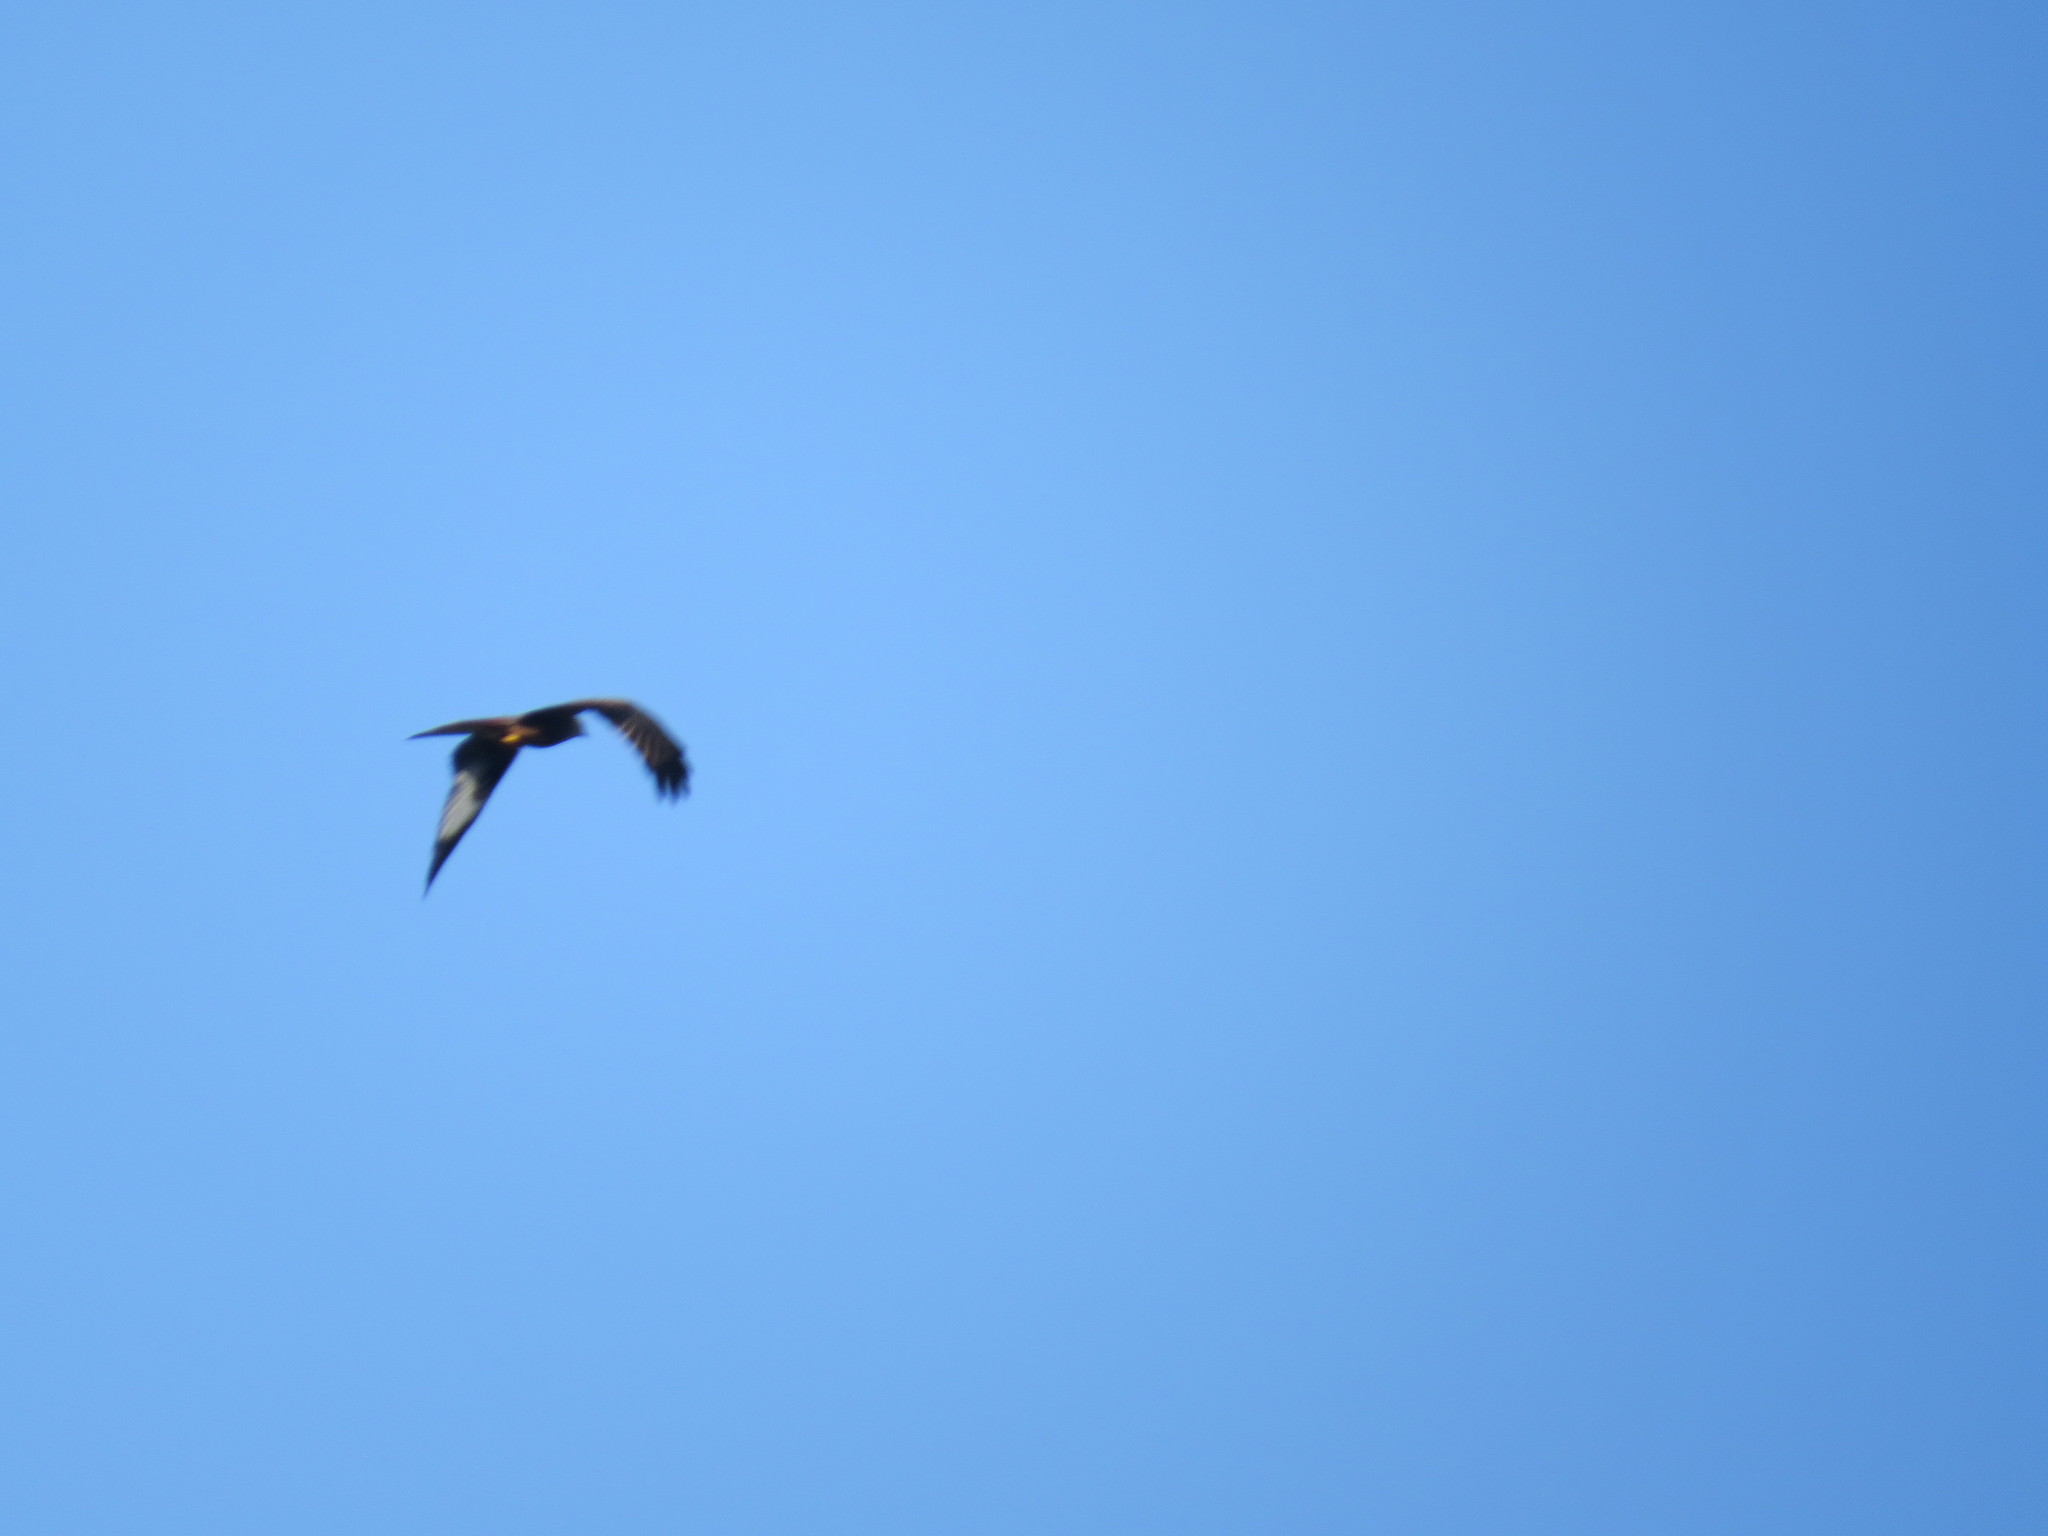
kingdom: Animalia
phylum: Chordata
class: Aves
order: Accipitriformes
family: Accipitridae
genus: Milvus
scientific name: Milvus milvus
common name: Red kite
